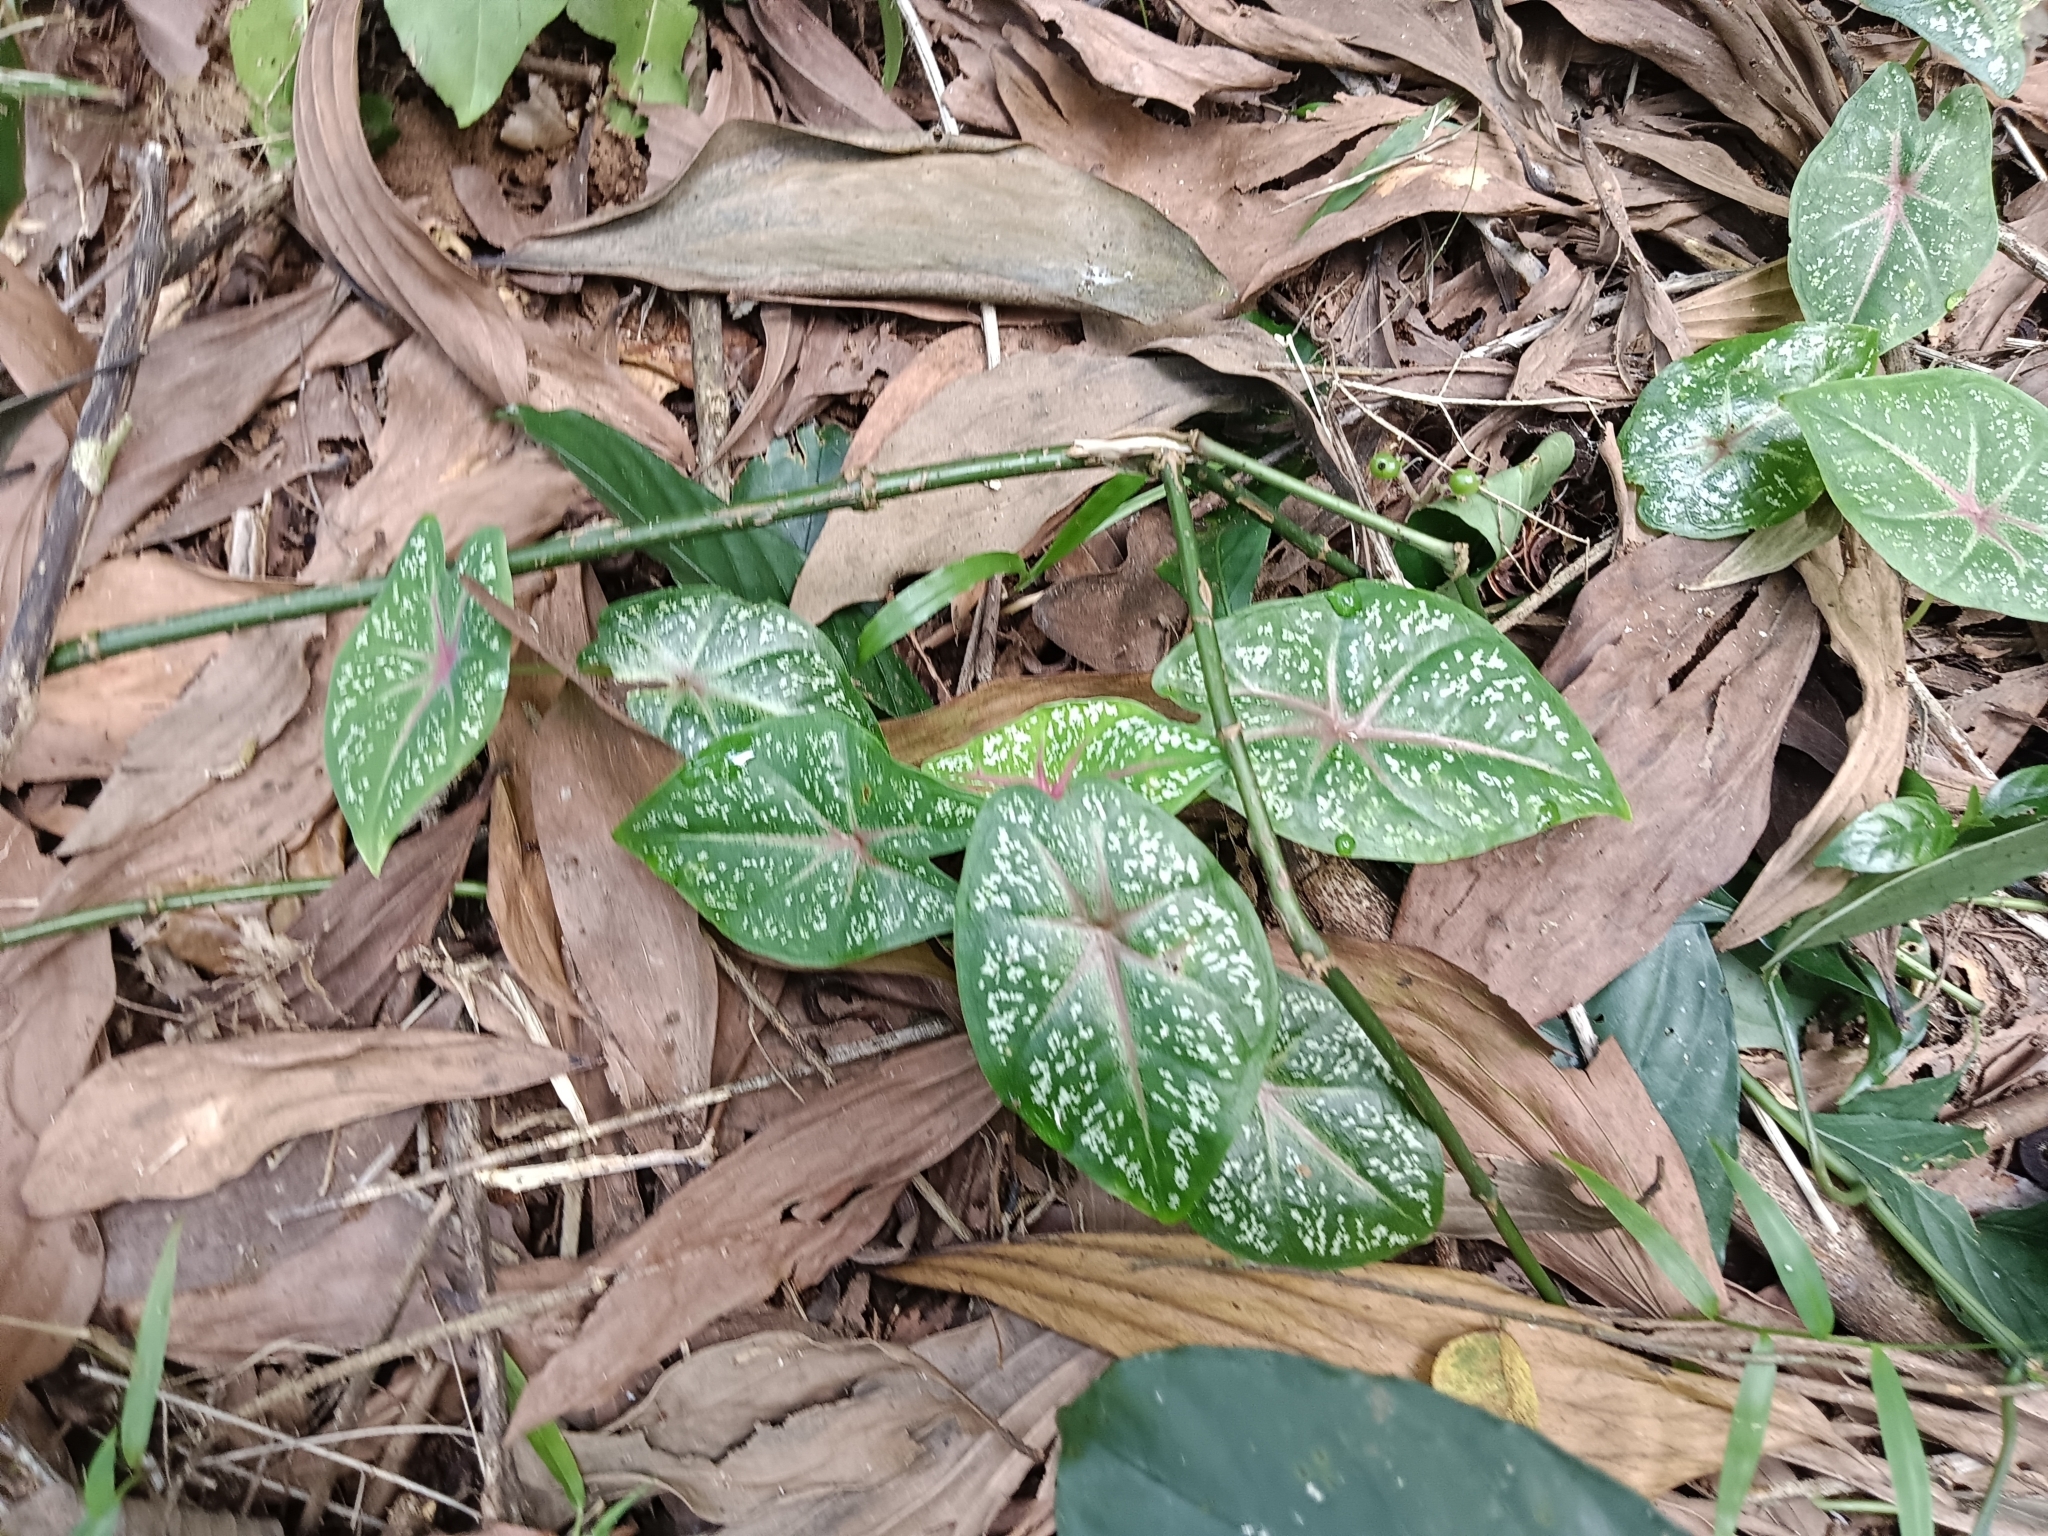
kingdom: Plantae
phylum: Tracheophyta
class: Liliopsida
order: Alismatales
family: Araceae
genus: Caladium
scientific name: Caladium bicolor
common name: Artist's pallet
